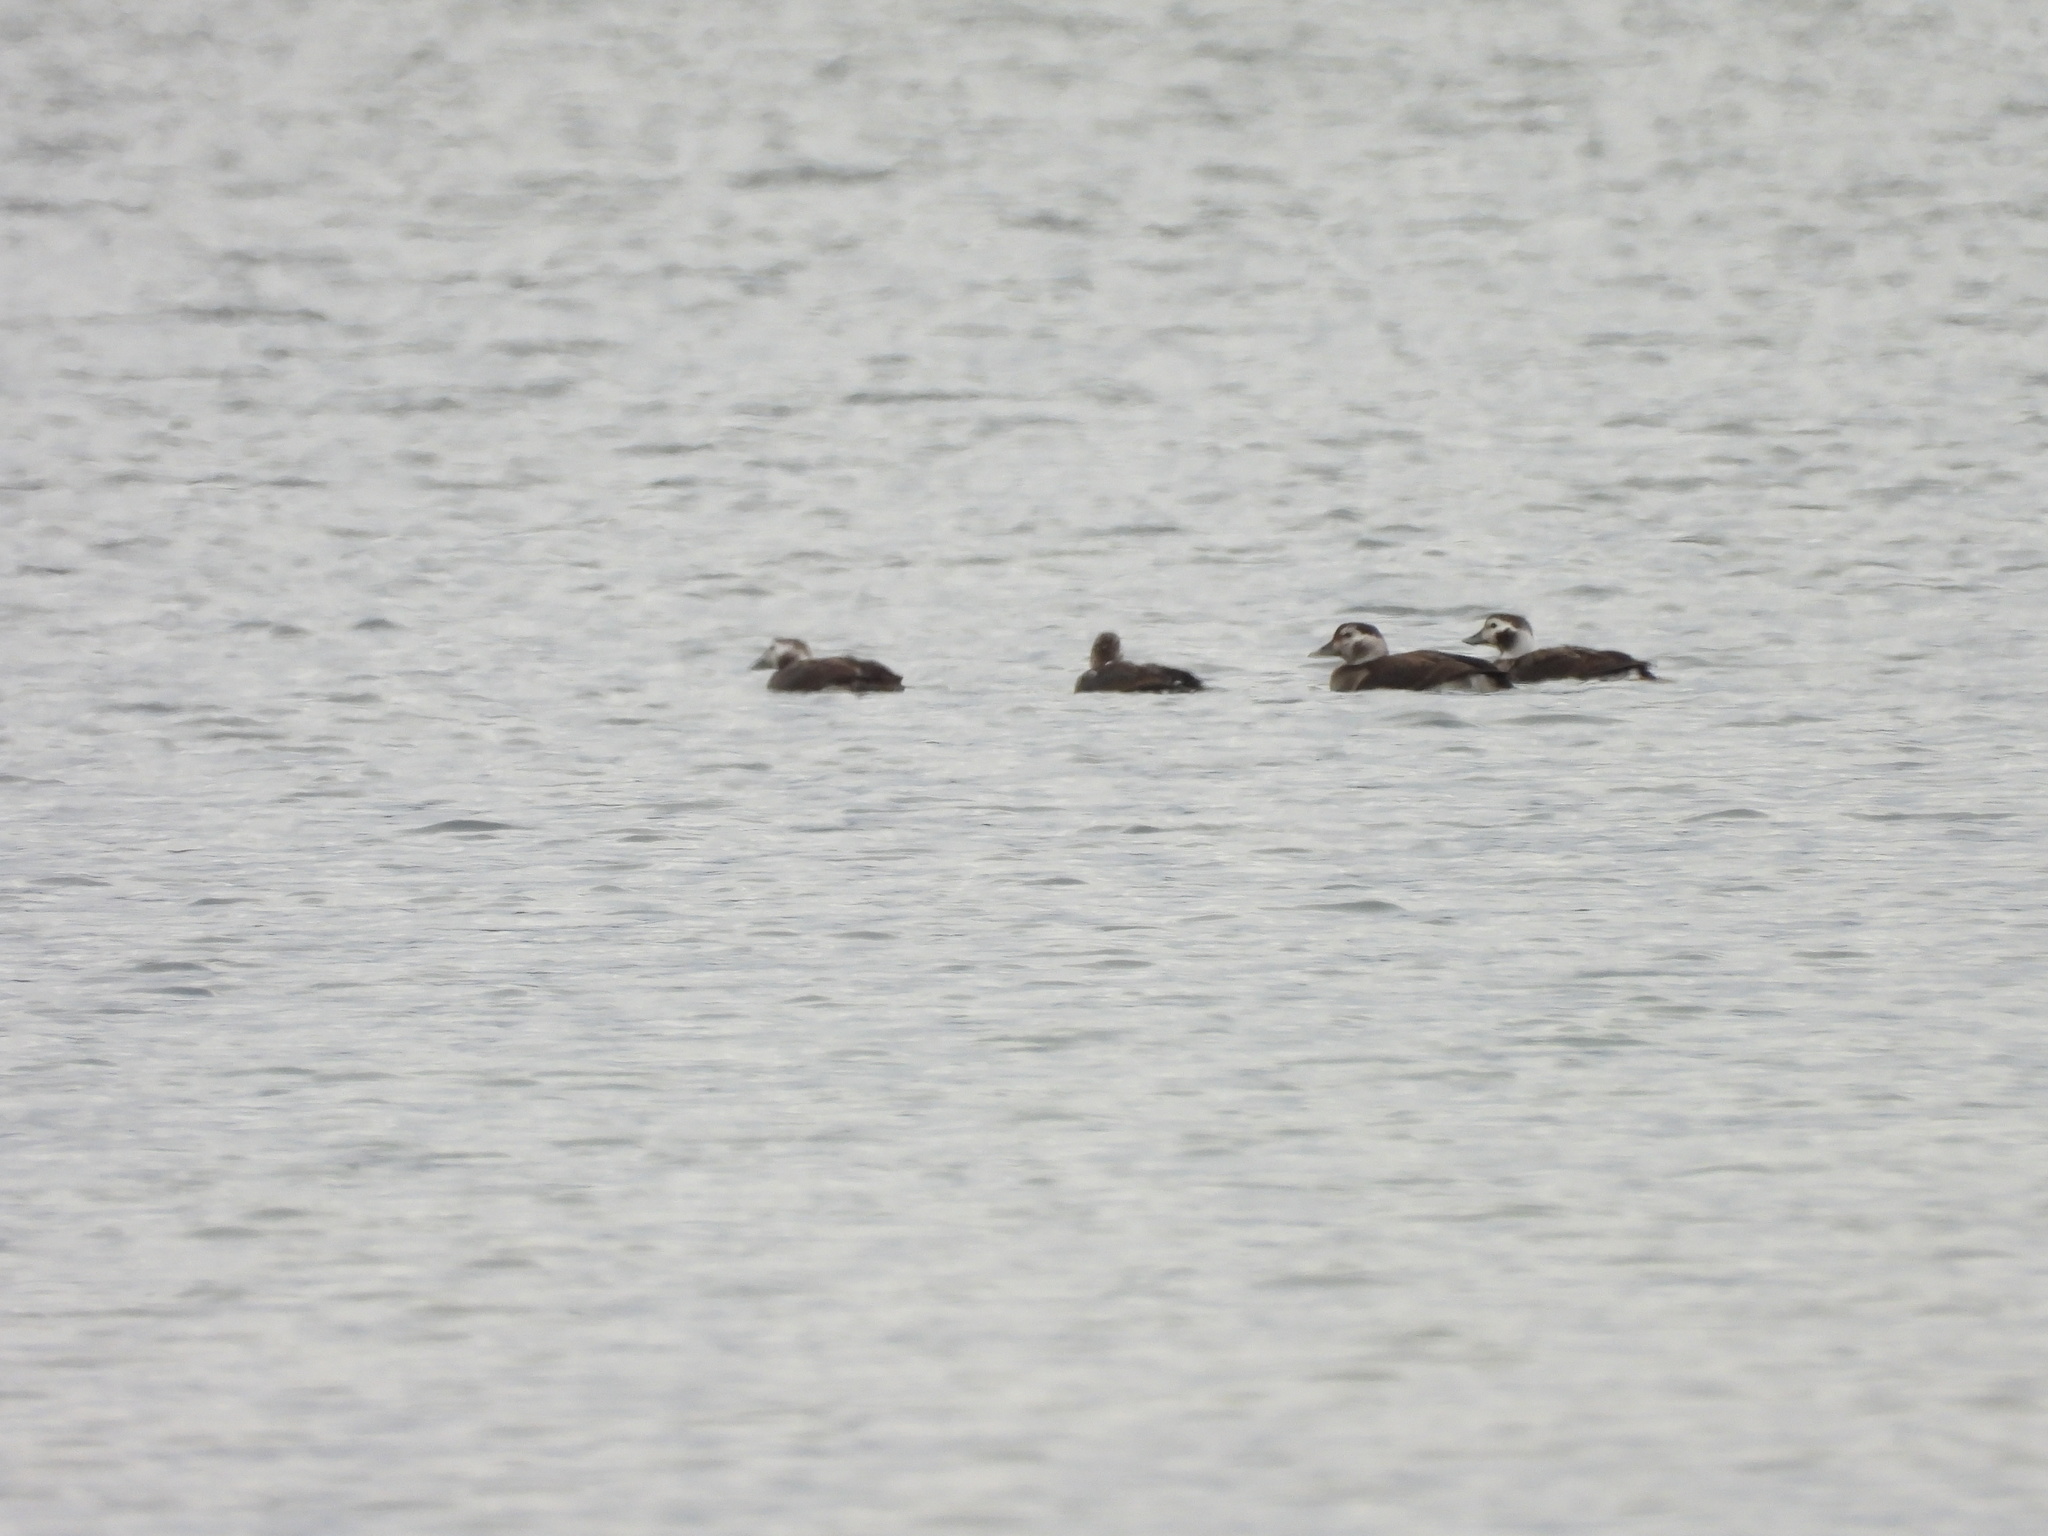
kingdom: Animalia
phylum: Chordata
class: Aves
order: Anseriformes
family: Anatidae
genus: Clangula
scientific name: Clangula hyemalis
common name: Long-tailed duck
